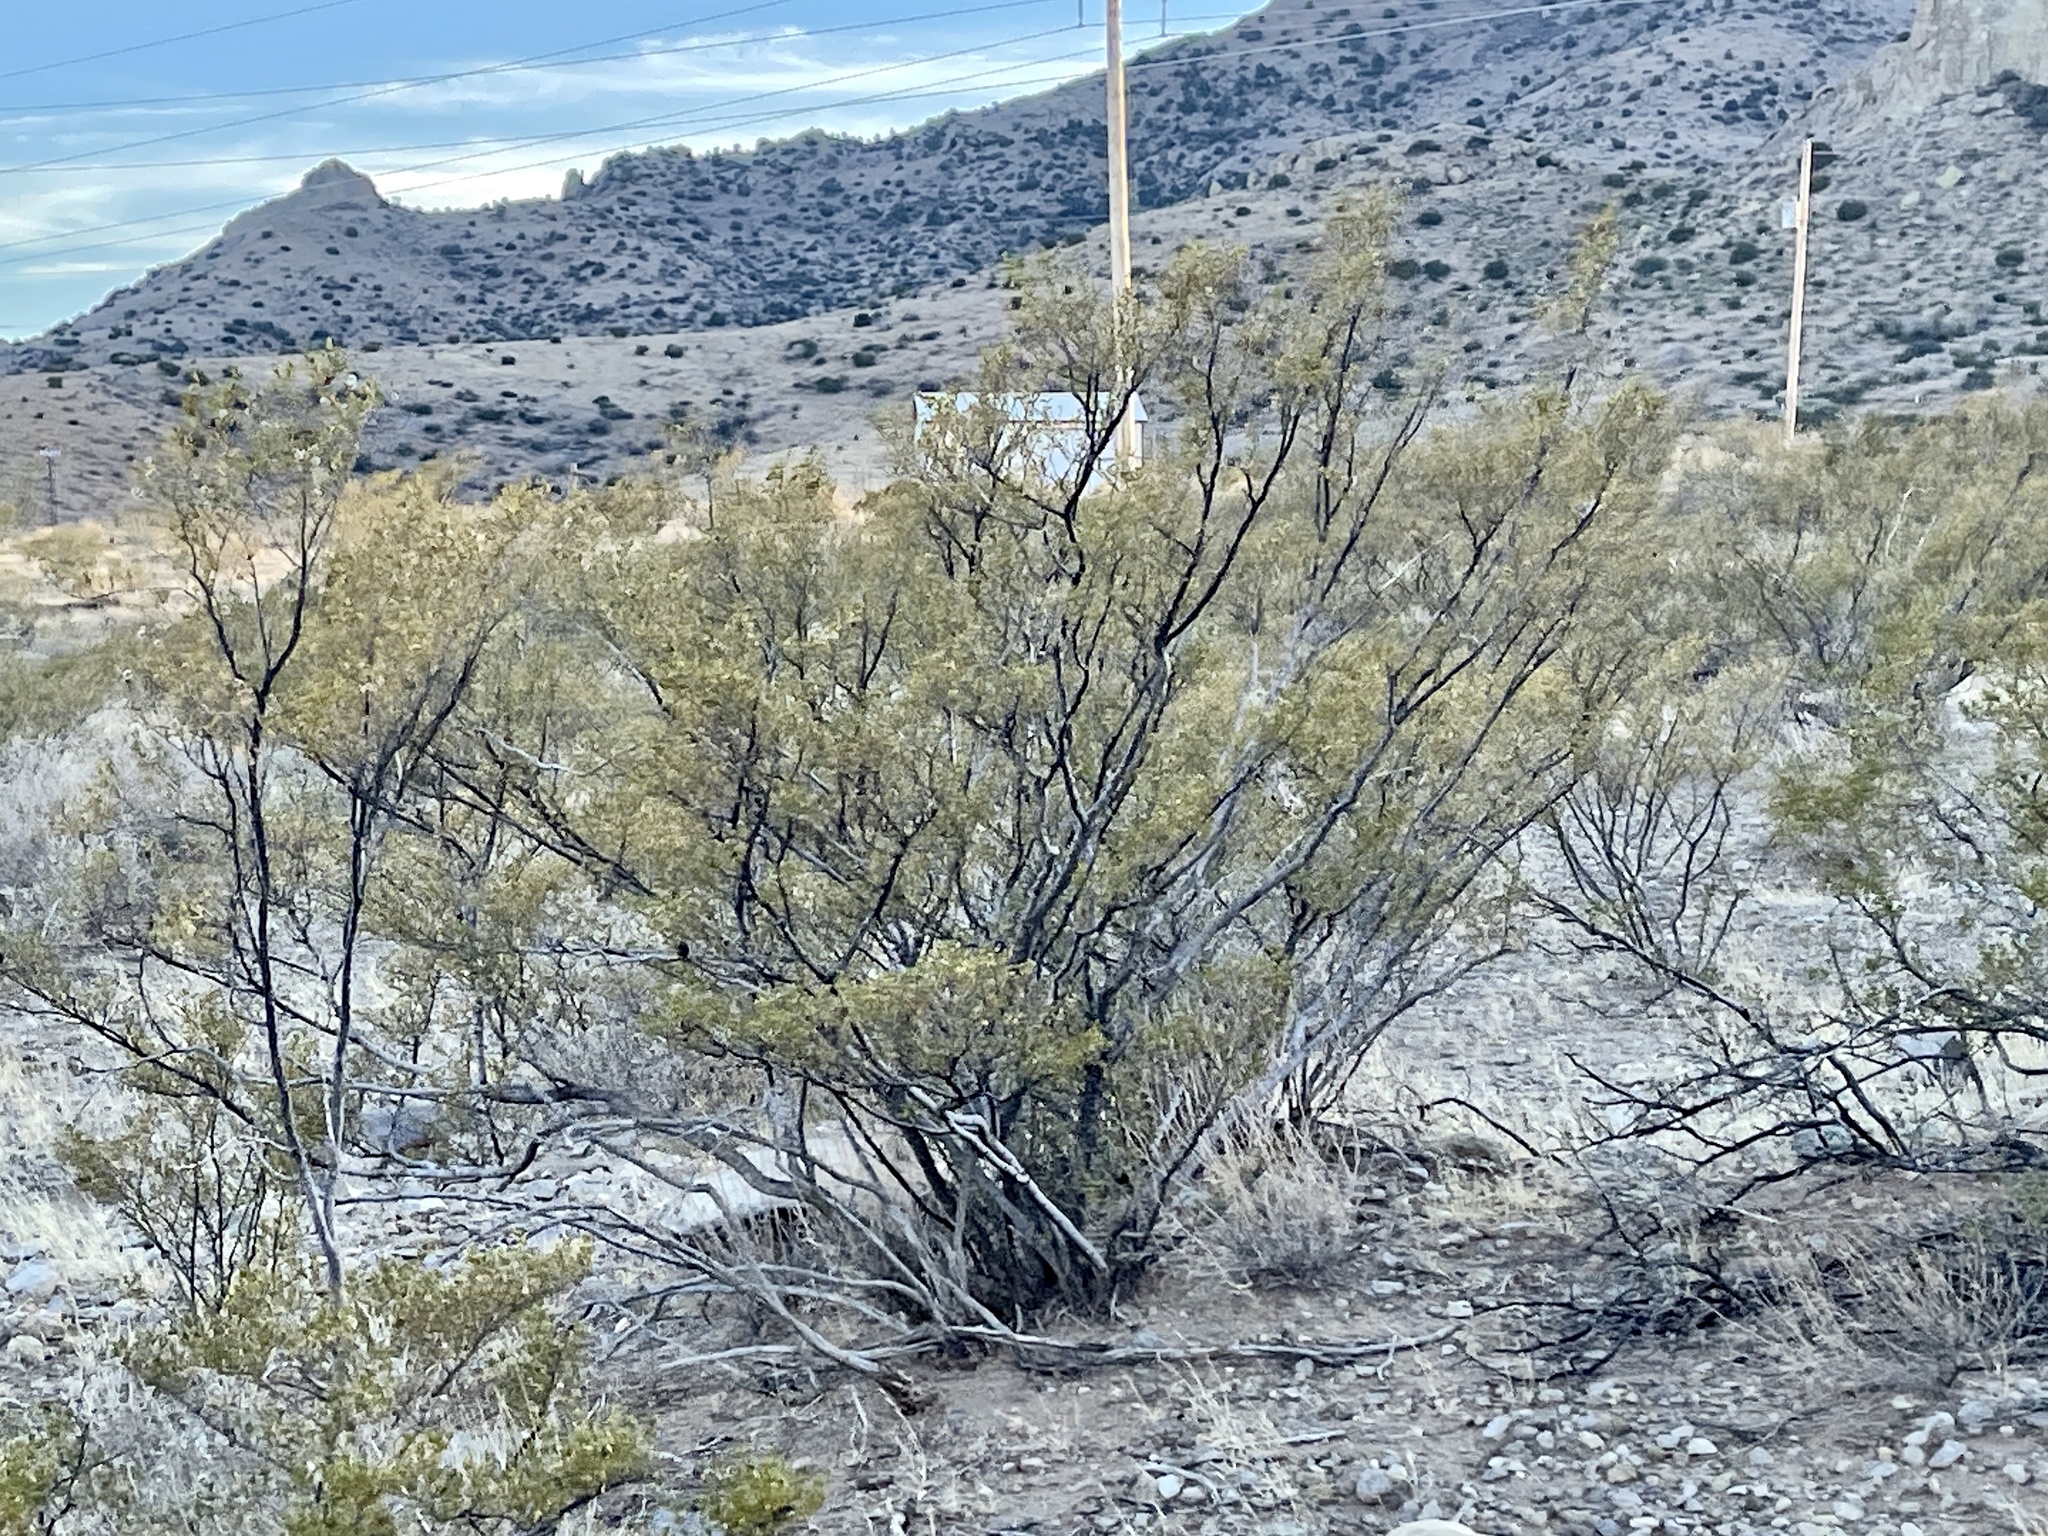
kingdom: Plantae
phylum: Tracheophyta
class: Magnoliopsida
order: Zygophyllales
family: Zygophyllaceae
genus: Larrea
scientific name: Larrea tridentata
